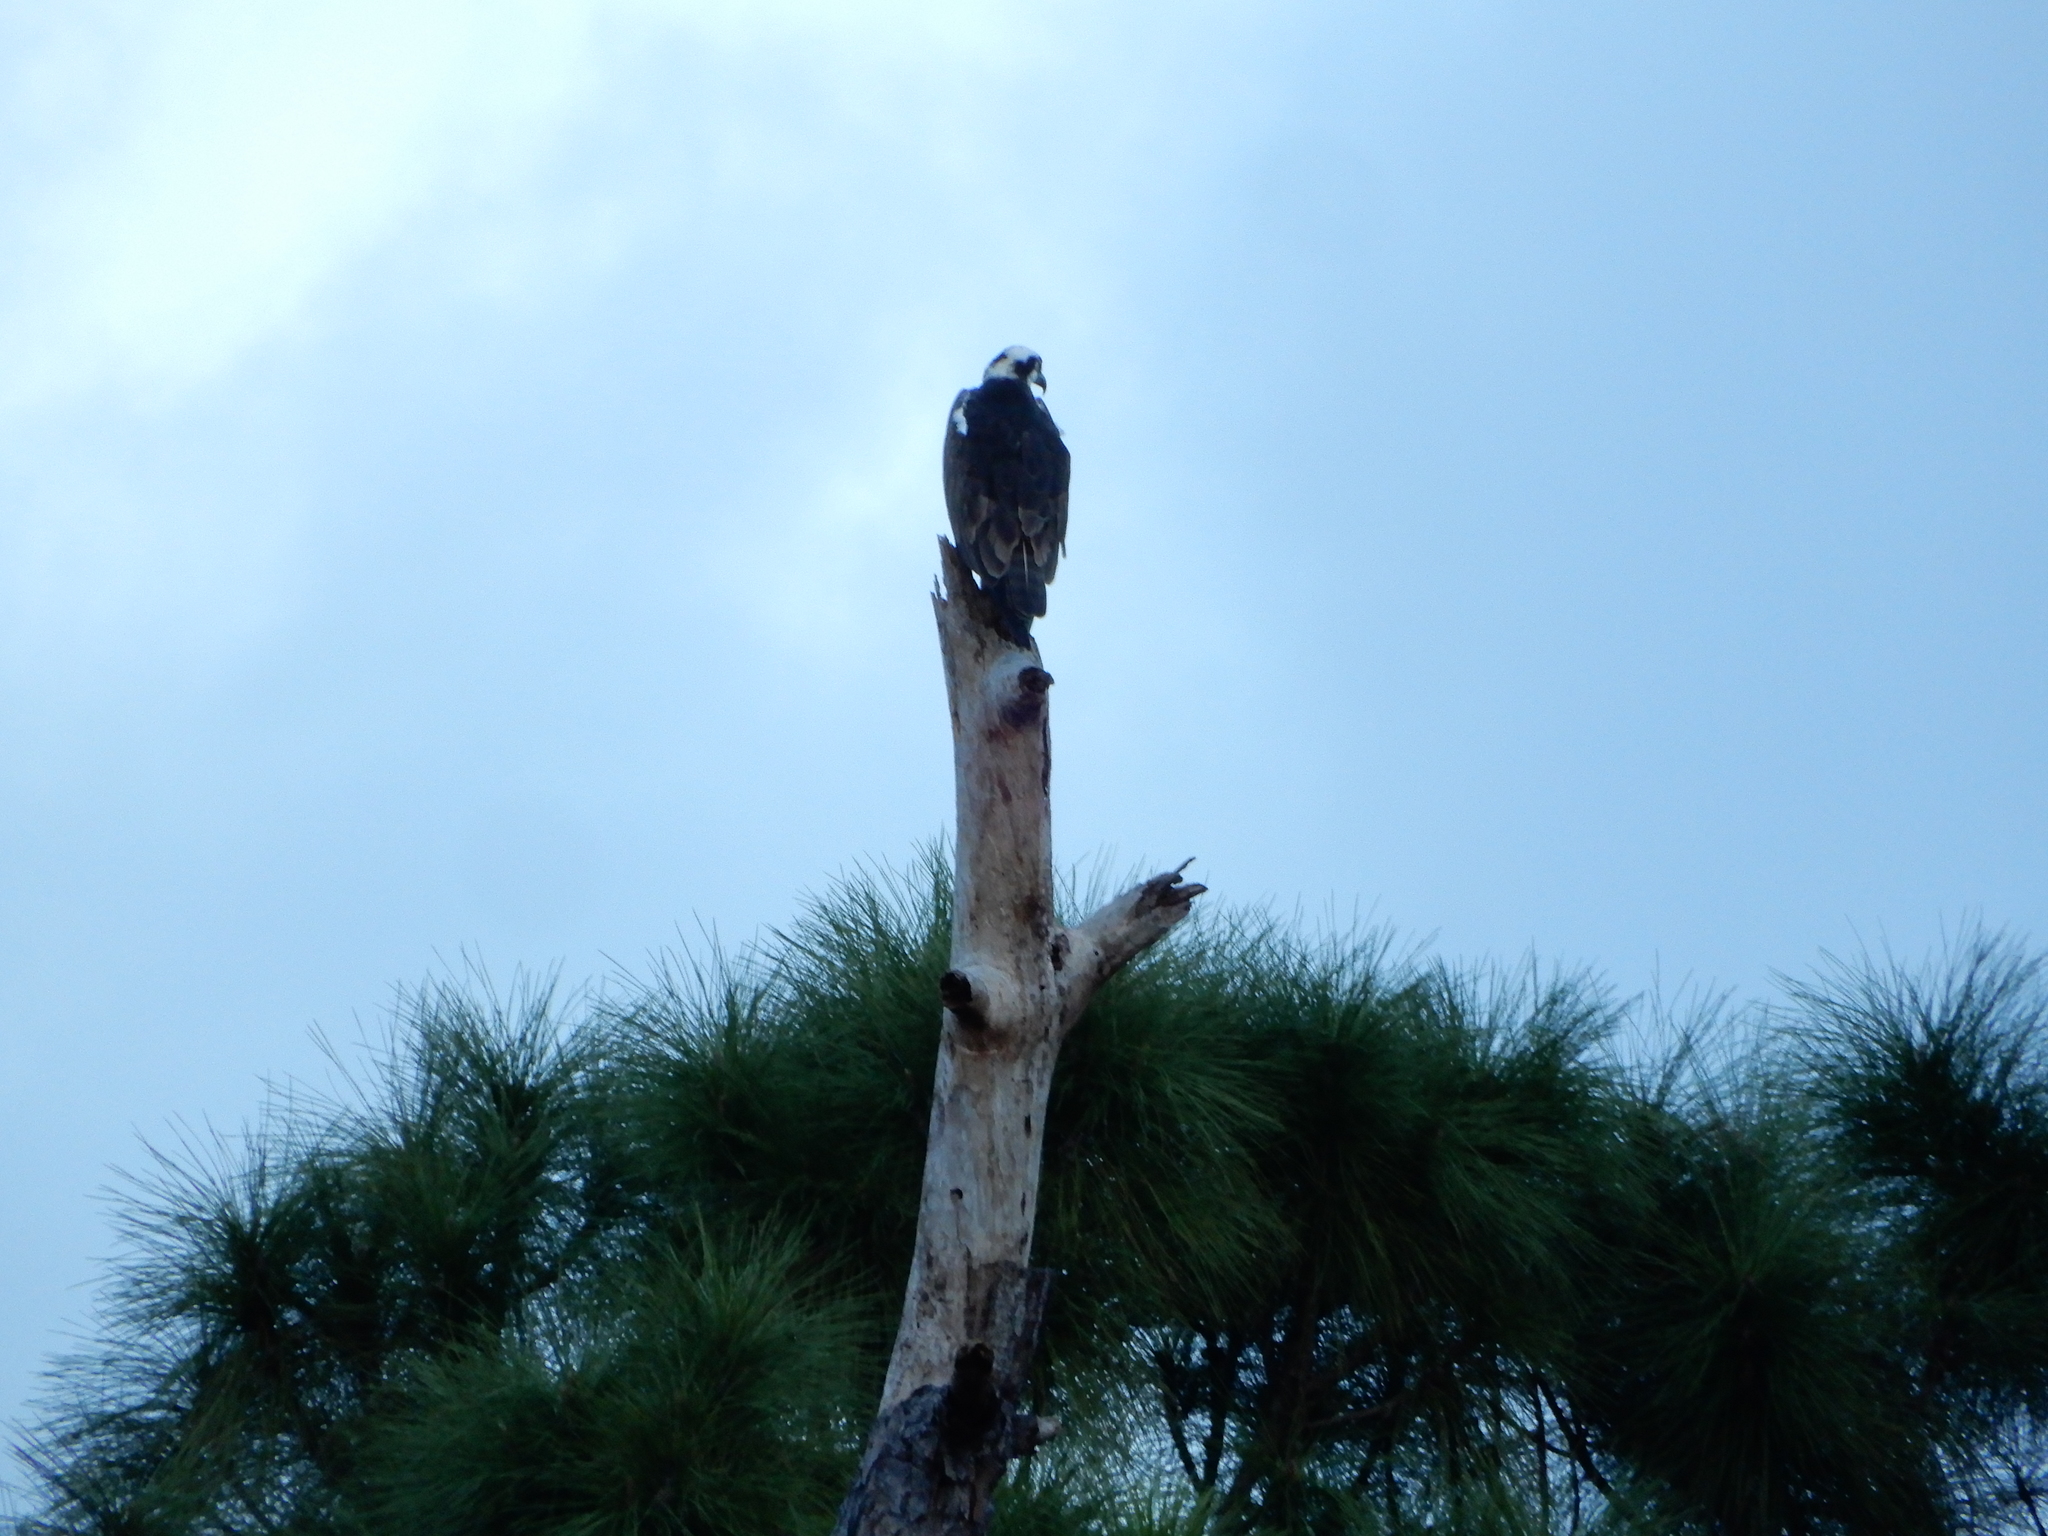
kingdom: Animalia
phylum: Chordata
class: Aves
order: Accipitriformes
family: Pandionidae
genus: Pandion
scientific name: Pandion haliaetus
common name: Osprey
